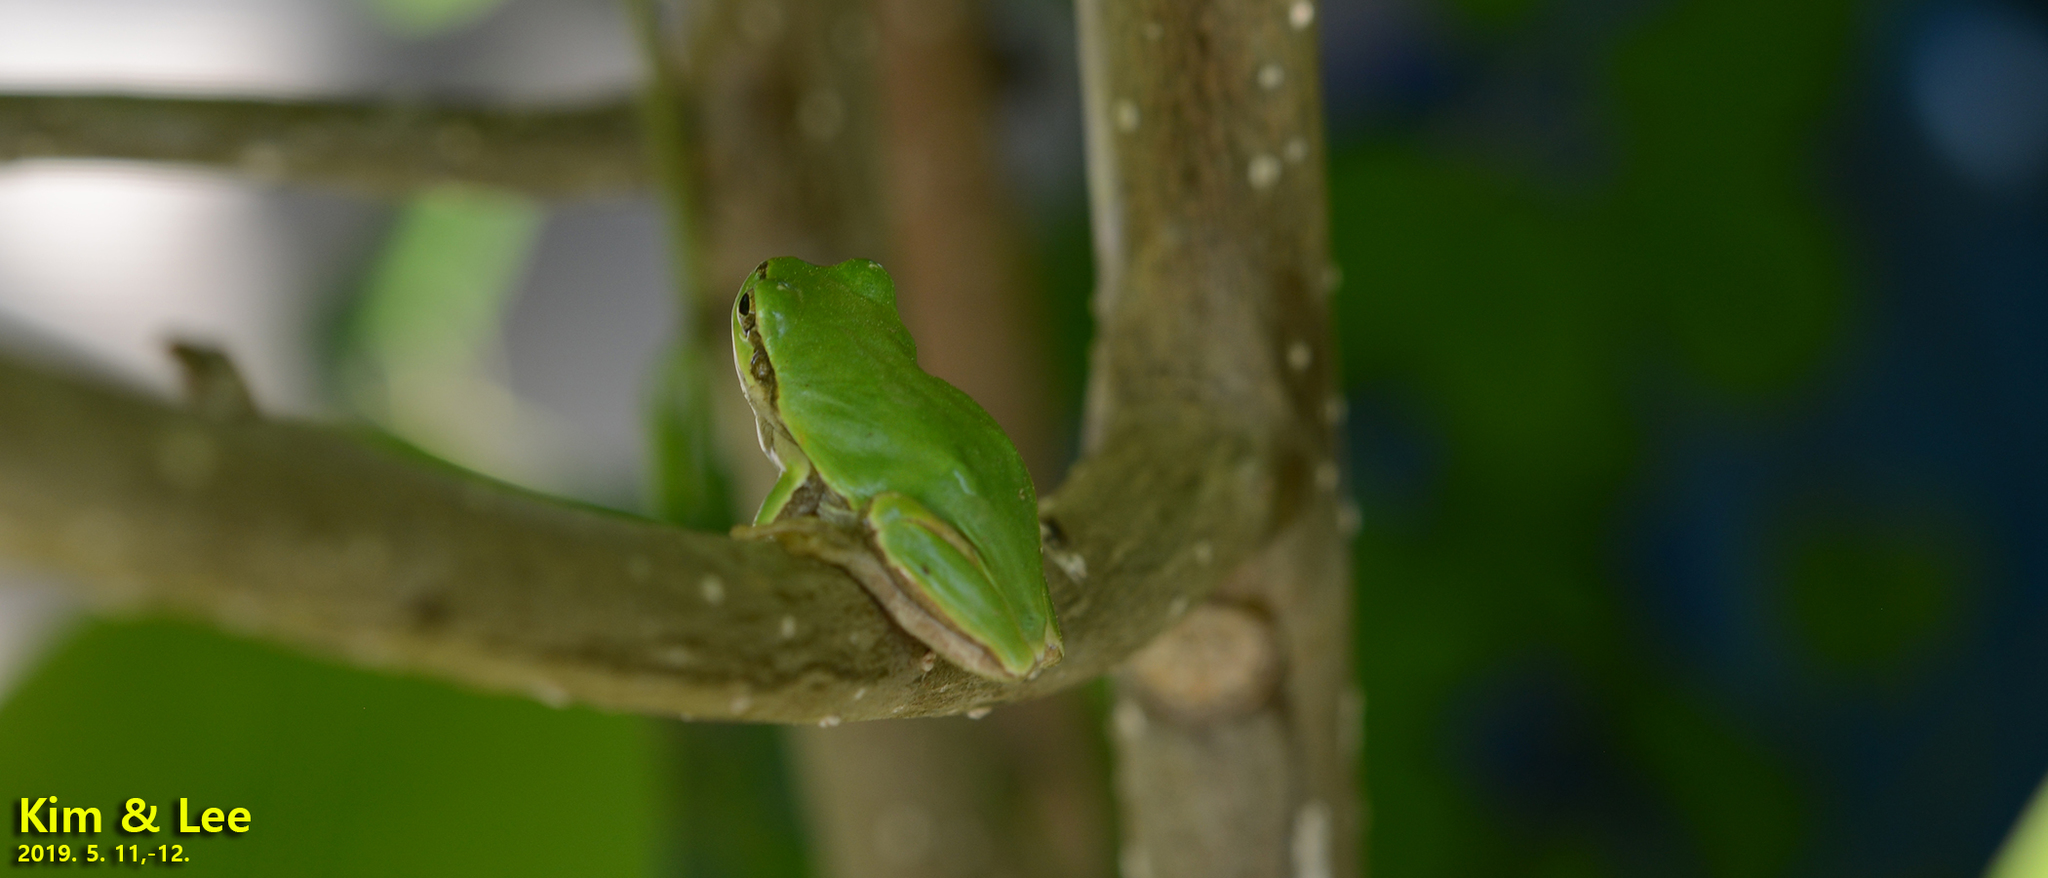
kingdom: Animalia
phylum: Chordata
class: Amphibia
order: Anura
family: Hylidae
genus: Dryophytes
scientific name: Dryophytes japonicus
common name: Japanese treefrog
